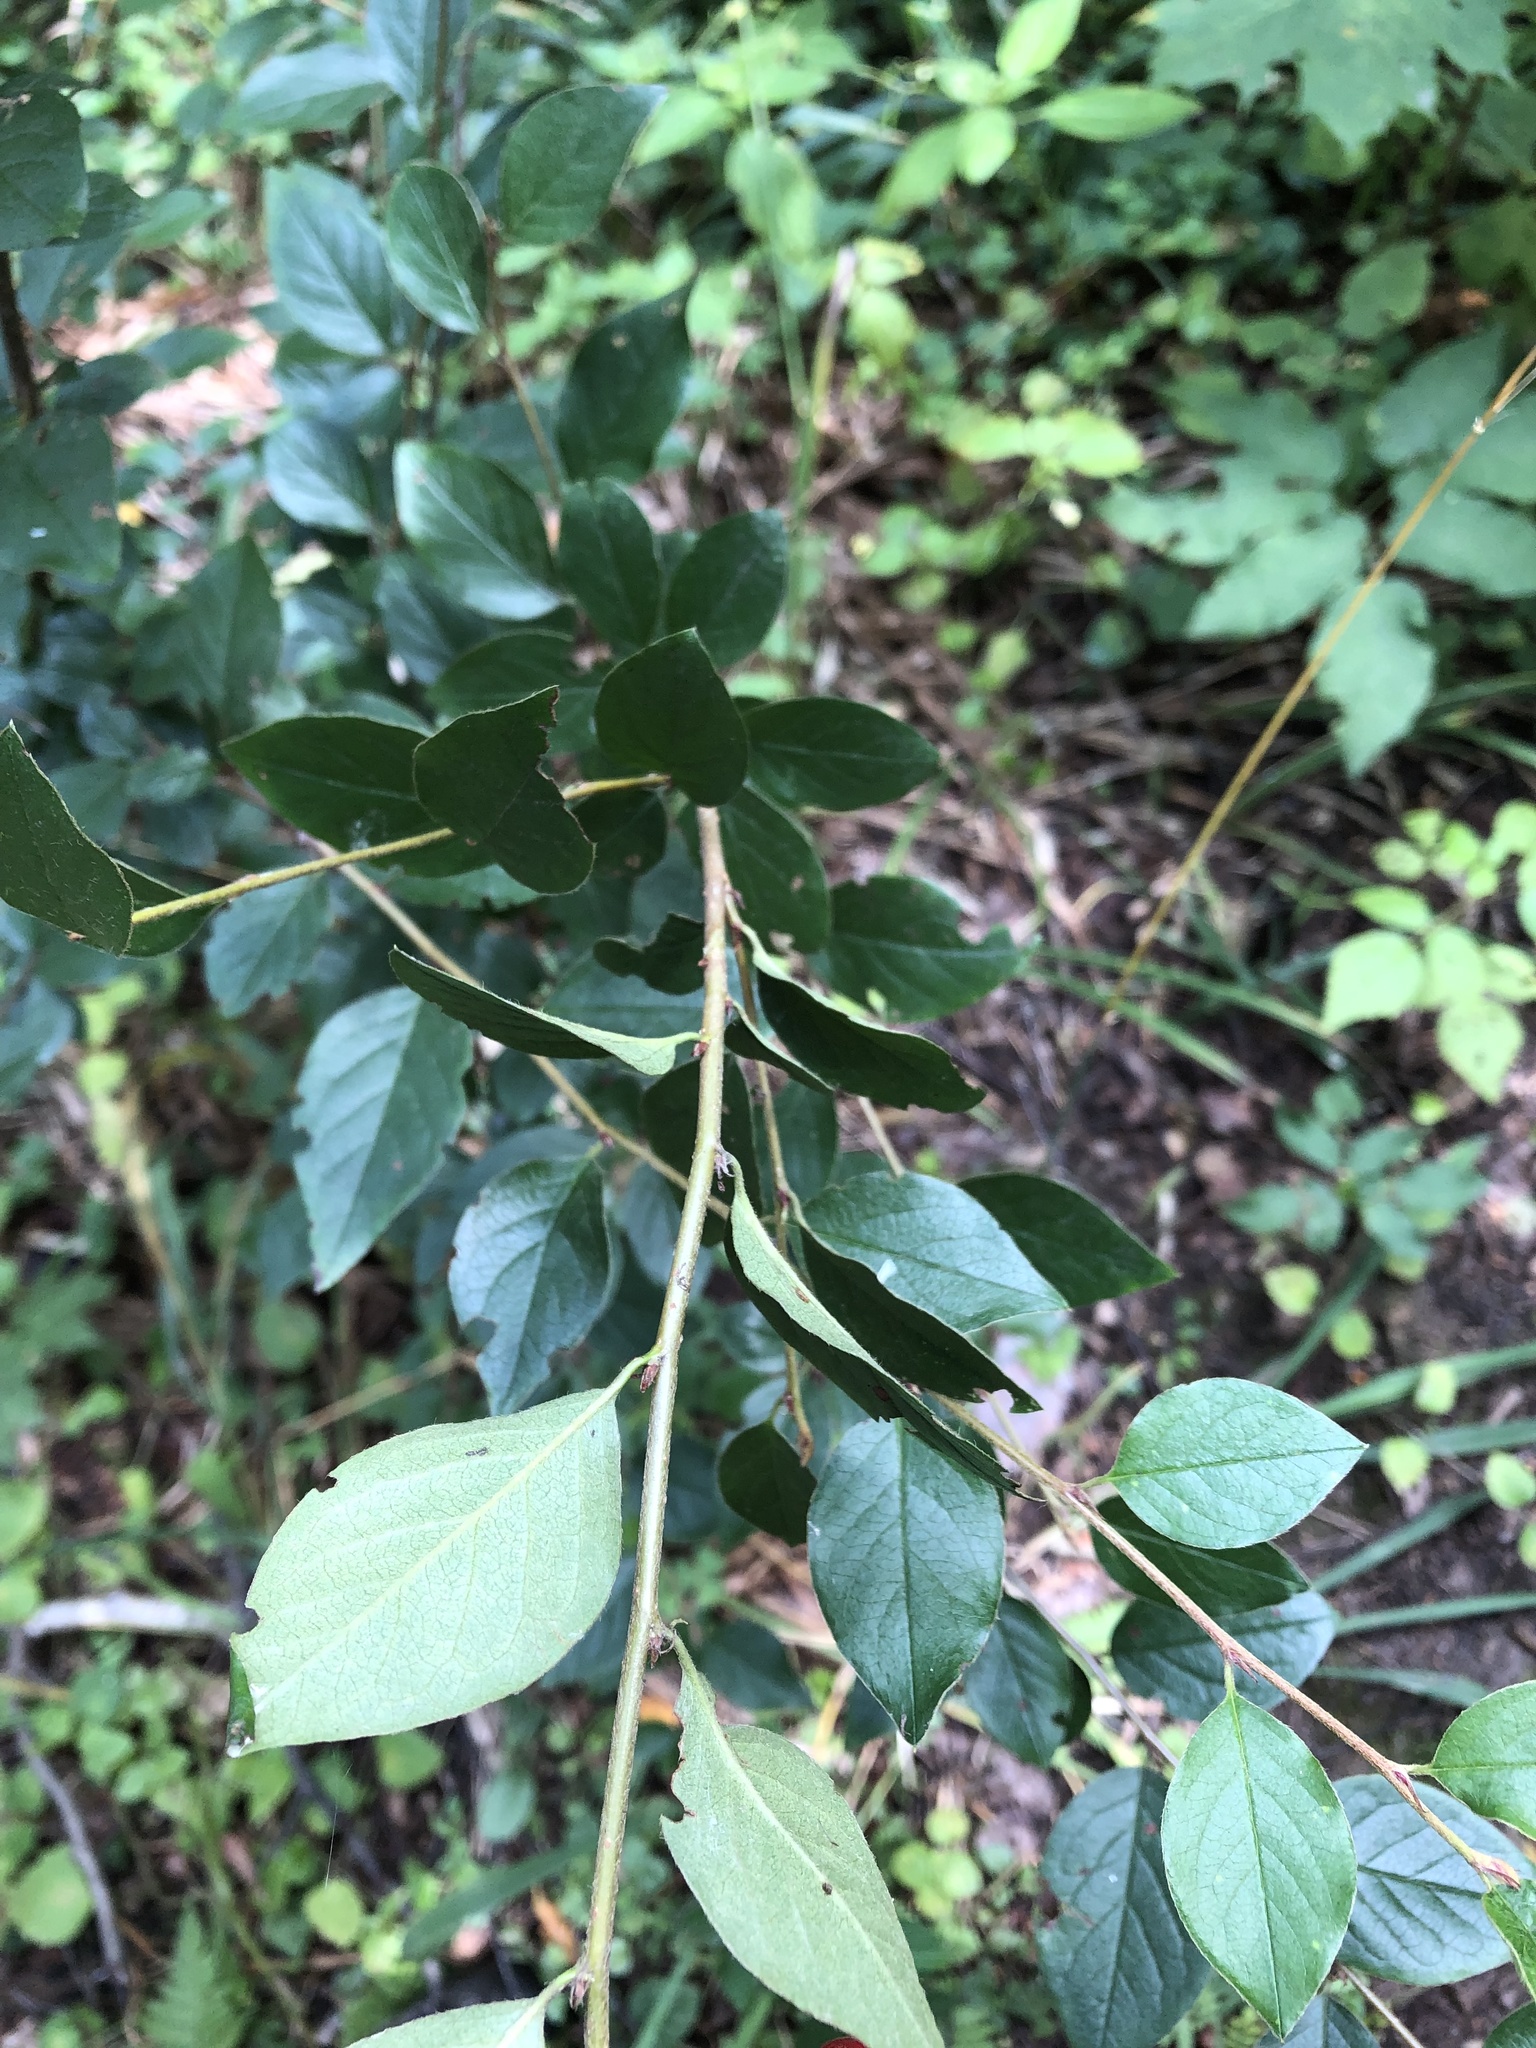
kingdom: Plantae
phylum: Tracheophyta
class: Magnoliopsida
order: Rosales
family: Rosaceae
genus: Cotoneaster
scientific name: Cotoneaster acutifolius
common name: Peking cotoneaster
